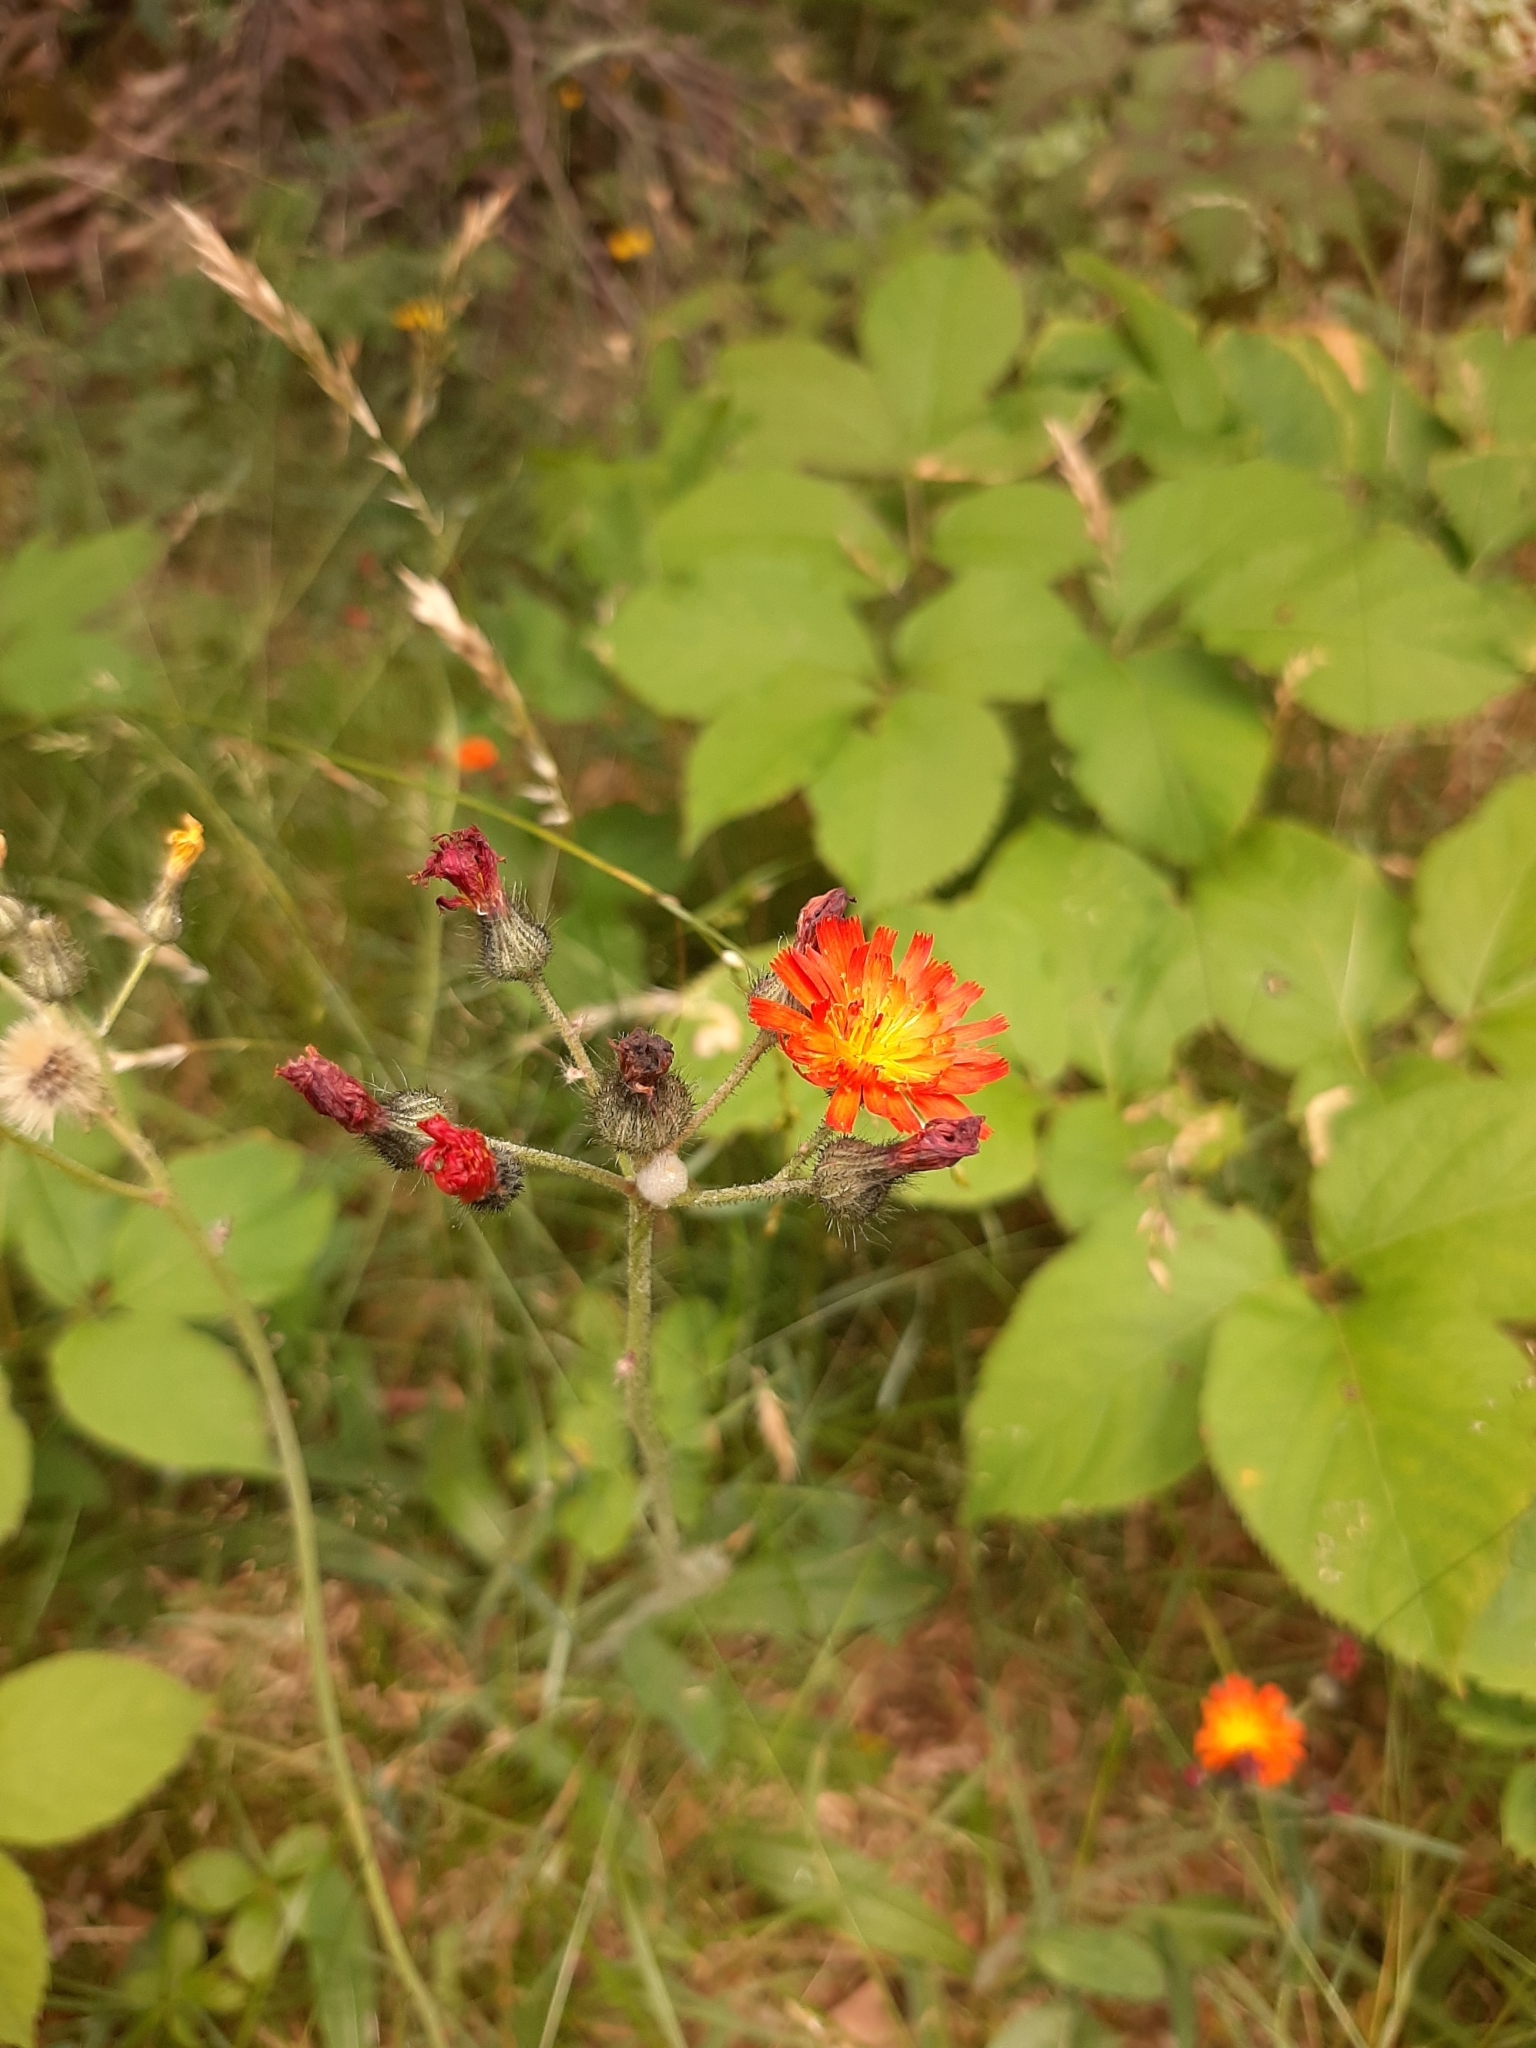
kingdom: Plantae
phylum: Tracheophyta
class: Magnoliopsida
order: Asterales
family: Asteraceae
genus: Pilosella
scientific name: Pilosella aurantiaca
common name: Fox-and-cubs
